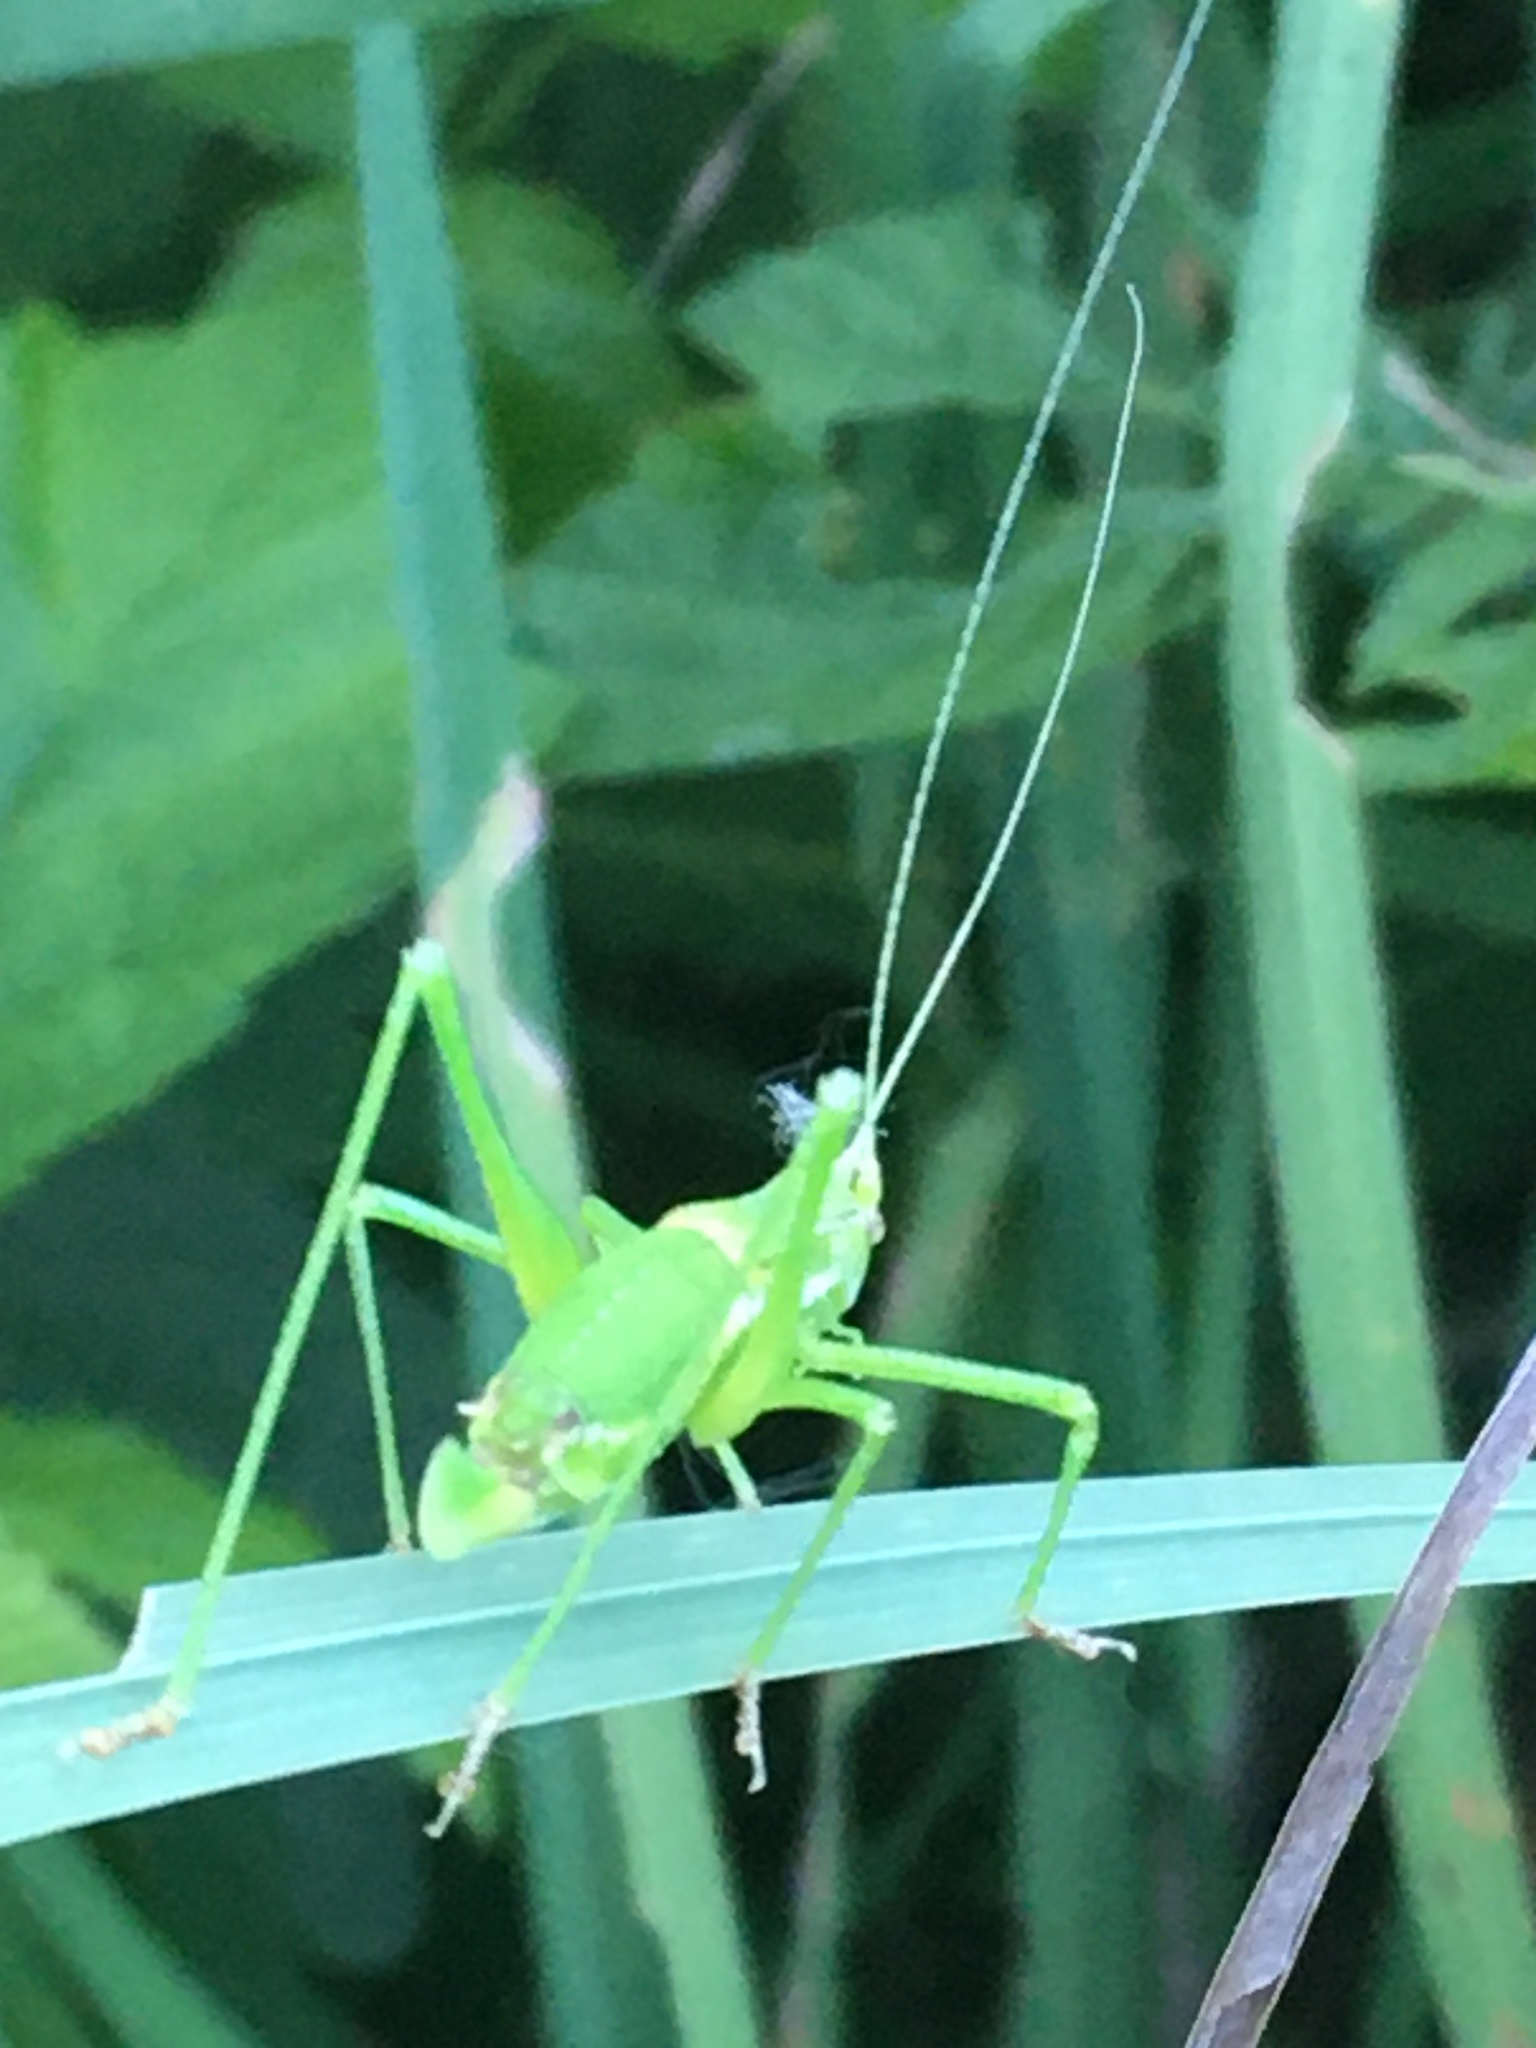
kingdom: Animalia
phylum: Arthropoda
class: Insecta
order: Orthoptera
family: Tettigoniidae
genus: Leptophyes
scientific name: Leptophyes albovittata
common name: Striped bush-cricket
